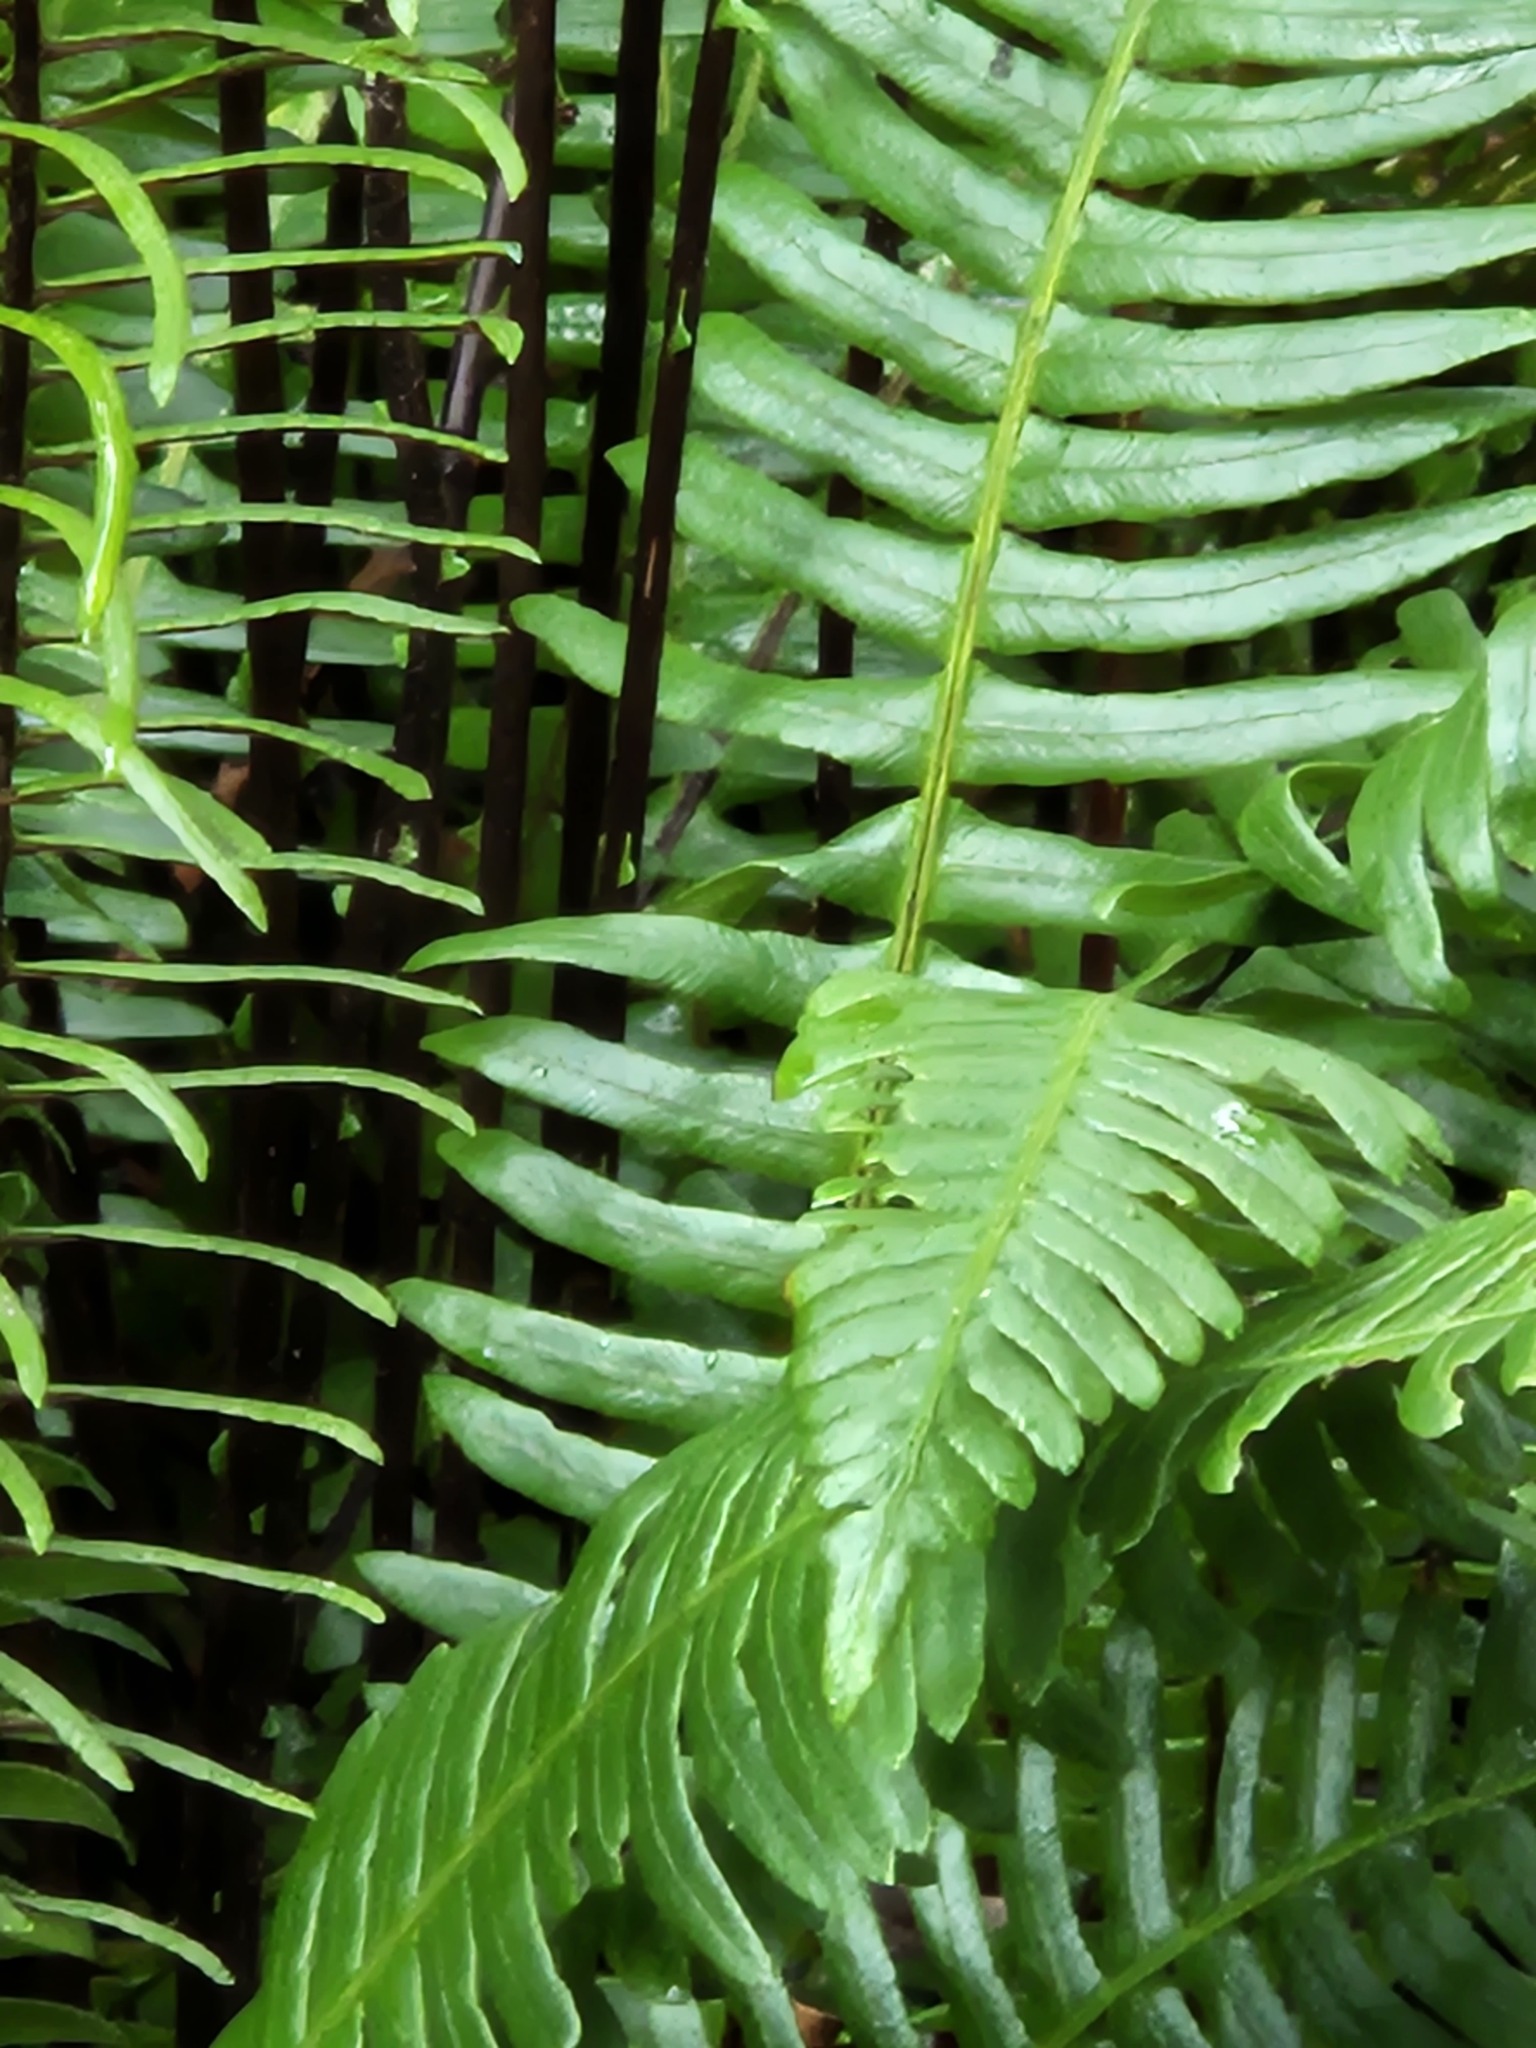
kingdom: Plantae
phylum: Tracheophyta
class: Polypodiopsida
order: Polypodiales
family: Blechnaceae
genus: Struthiopteris
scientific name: Struthiopteris spicant
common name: Deer fern
